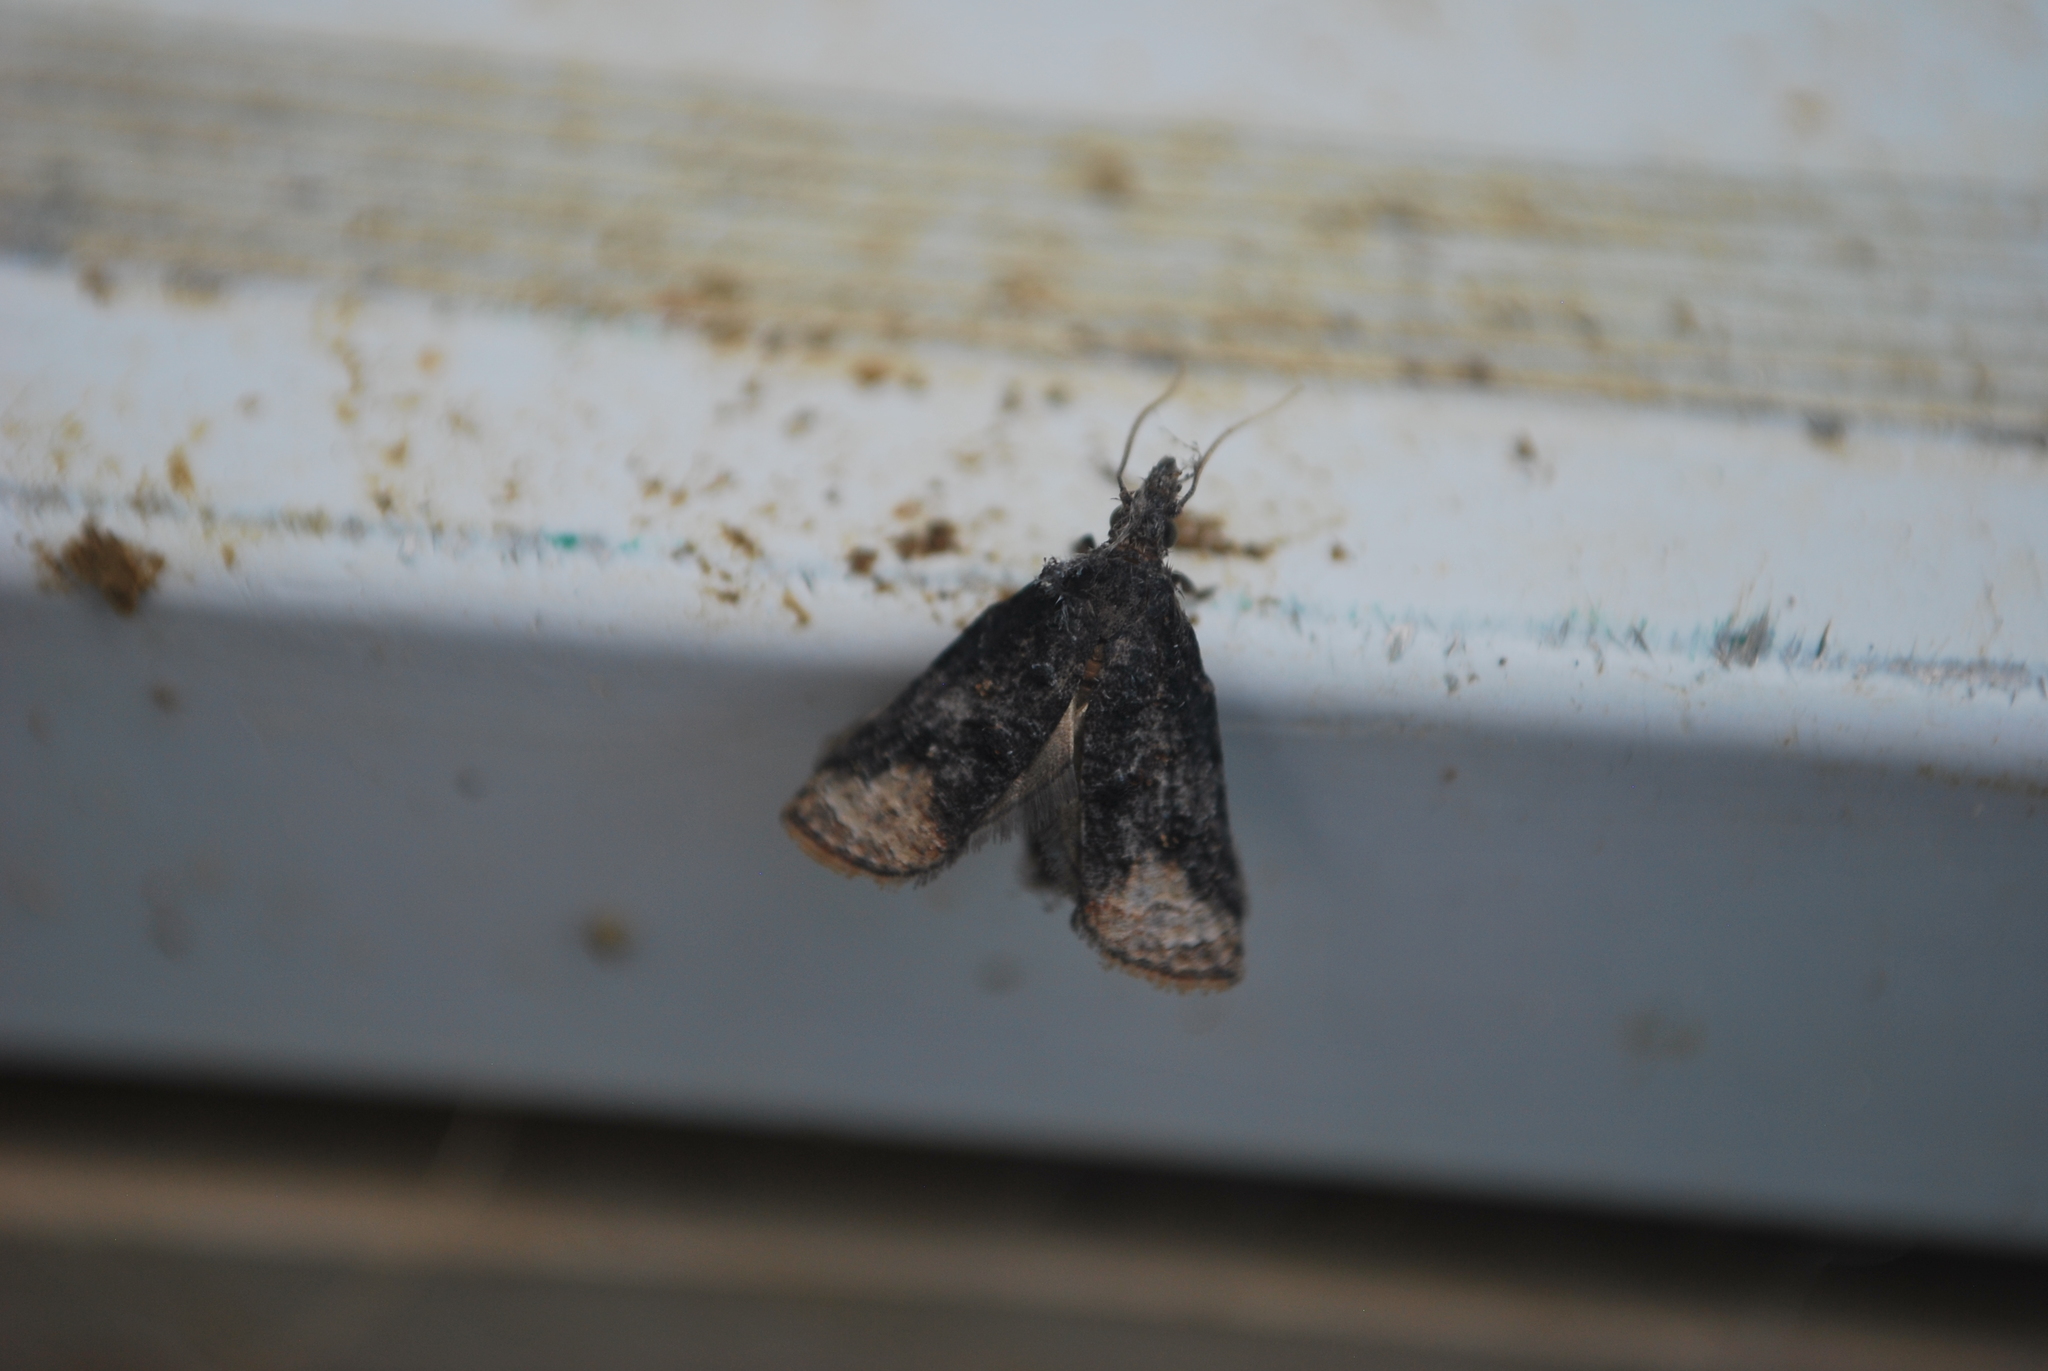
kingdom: Animalia
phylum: Arthropoda
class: Insecta
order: Lepidoptera
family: Tortricidae
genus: Platynota
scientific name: Platynota semiustana
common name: Singed platynota
